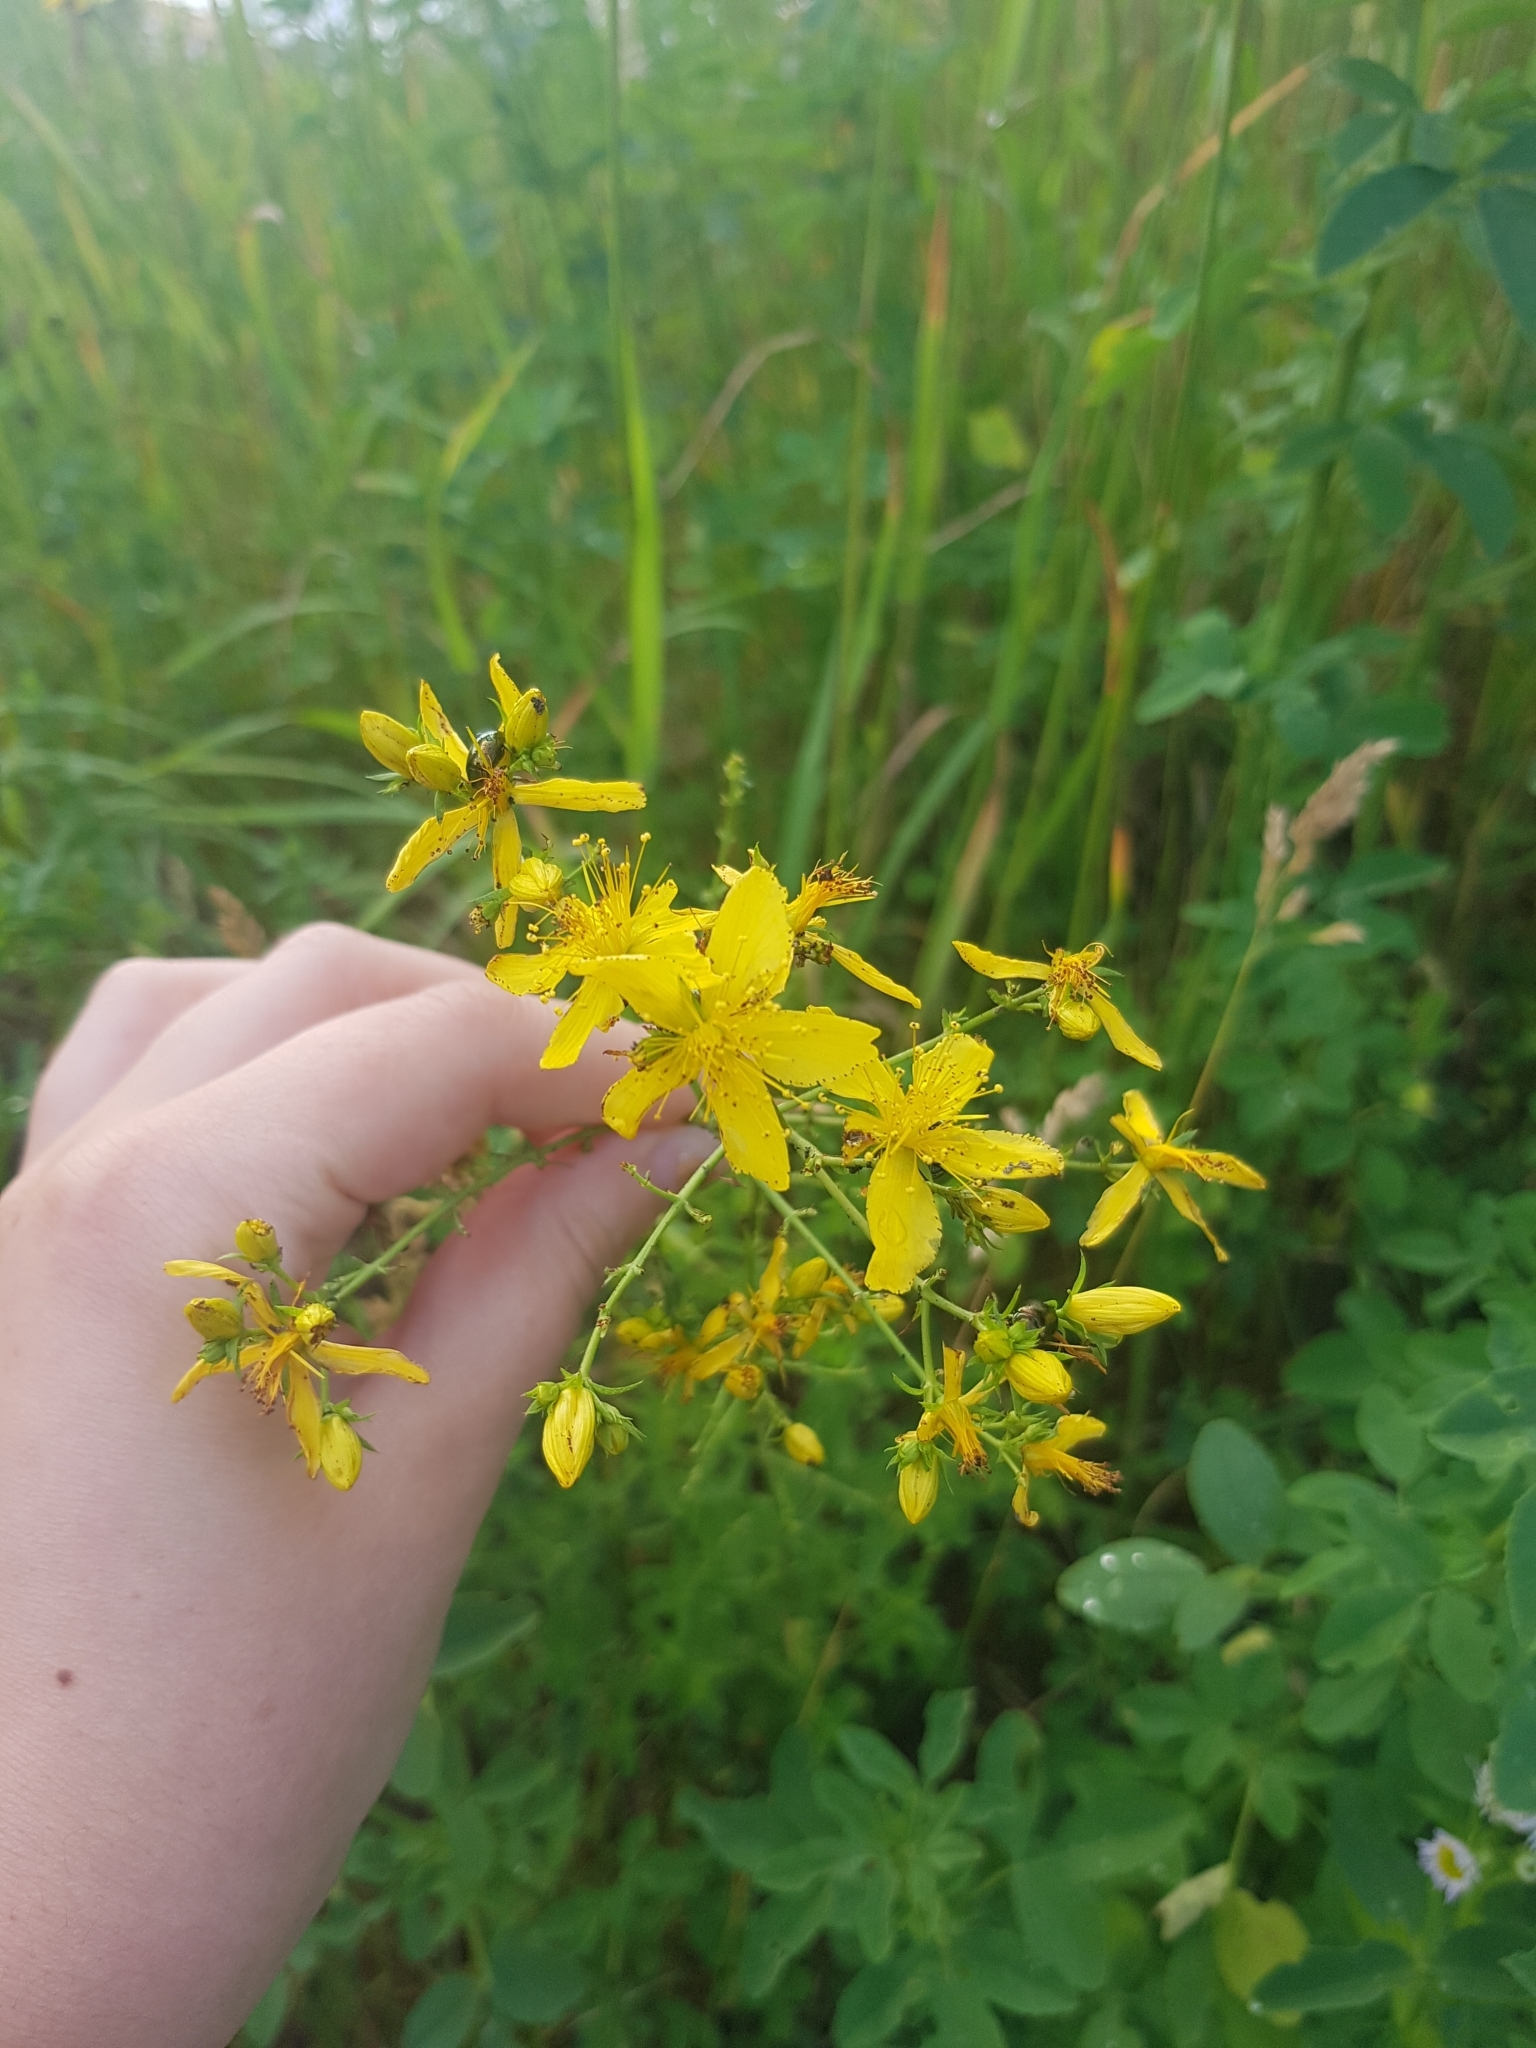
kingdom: Plantae
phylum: Tracheophyta
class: Magnoliopsida
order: Malpighiales
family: Hypericaceae
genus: Hypericum
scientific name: Hypericum perforatum
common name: Common st. johnswort
